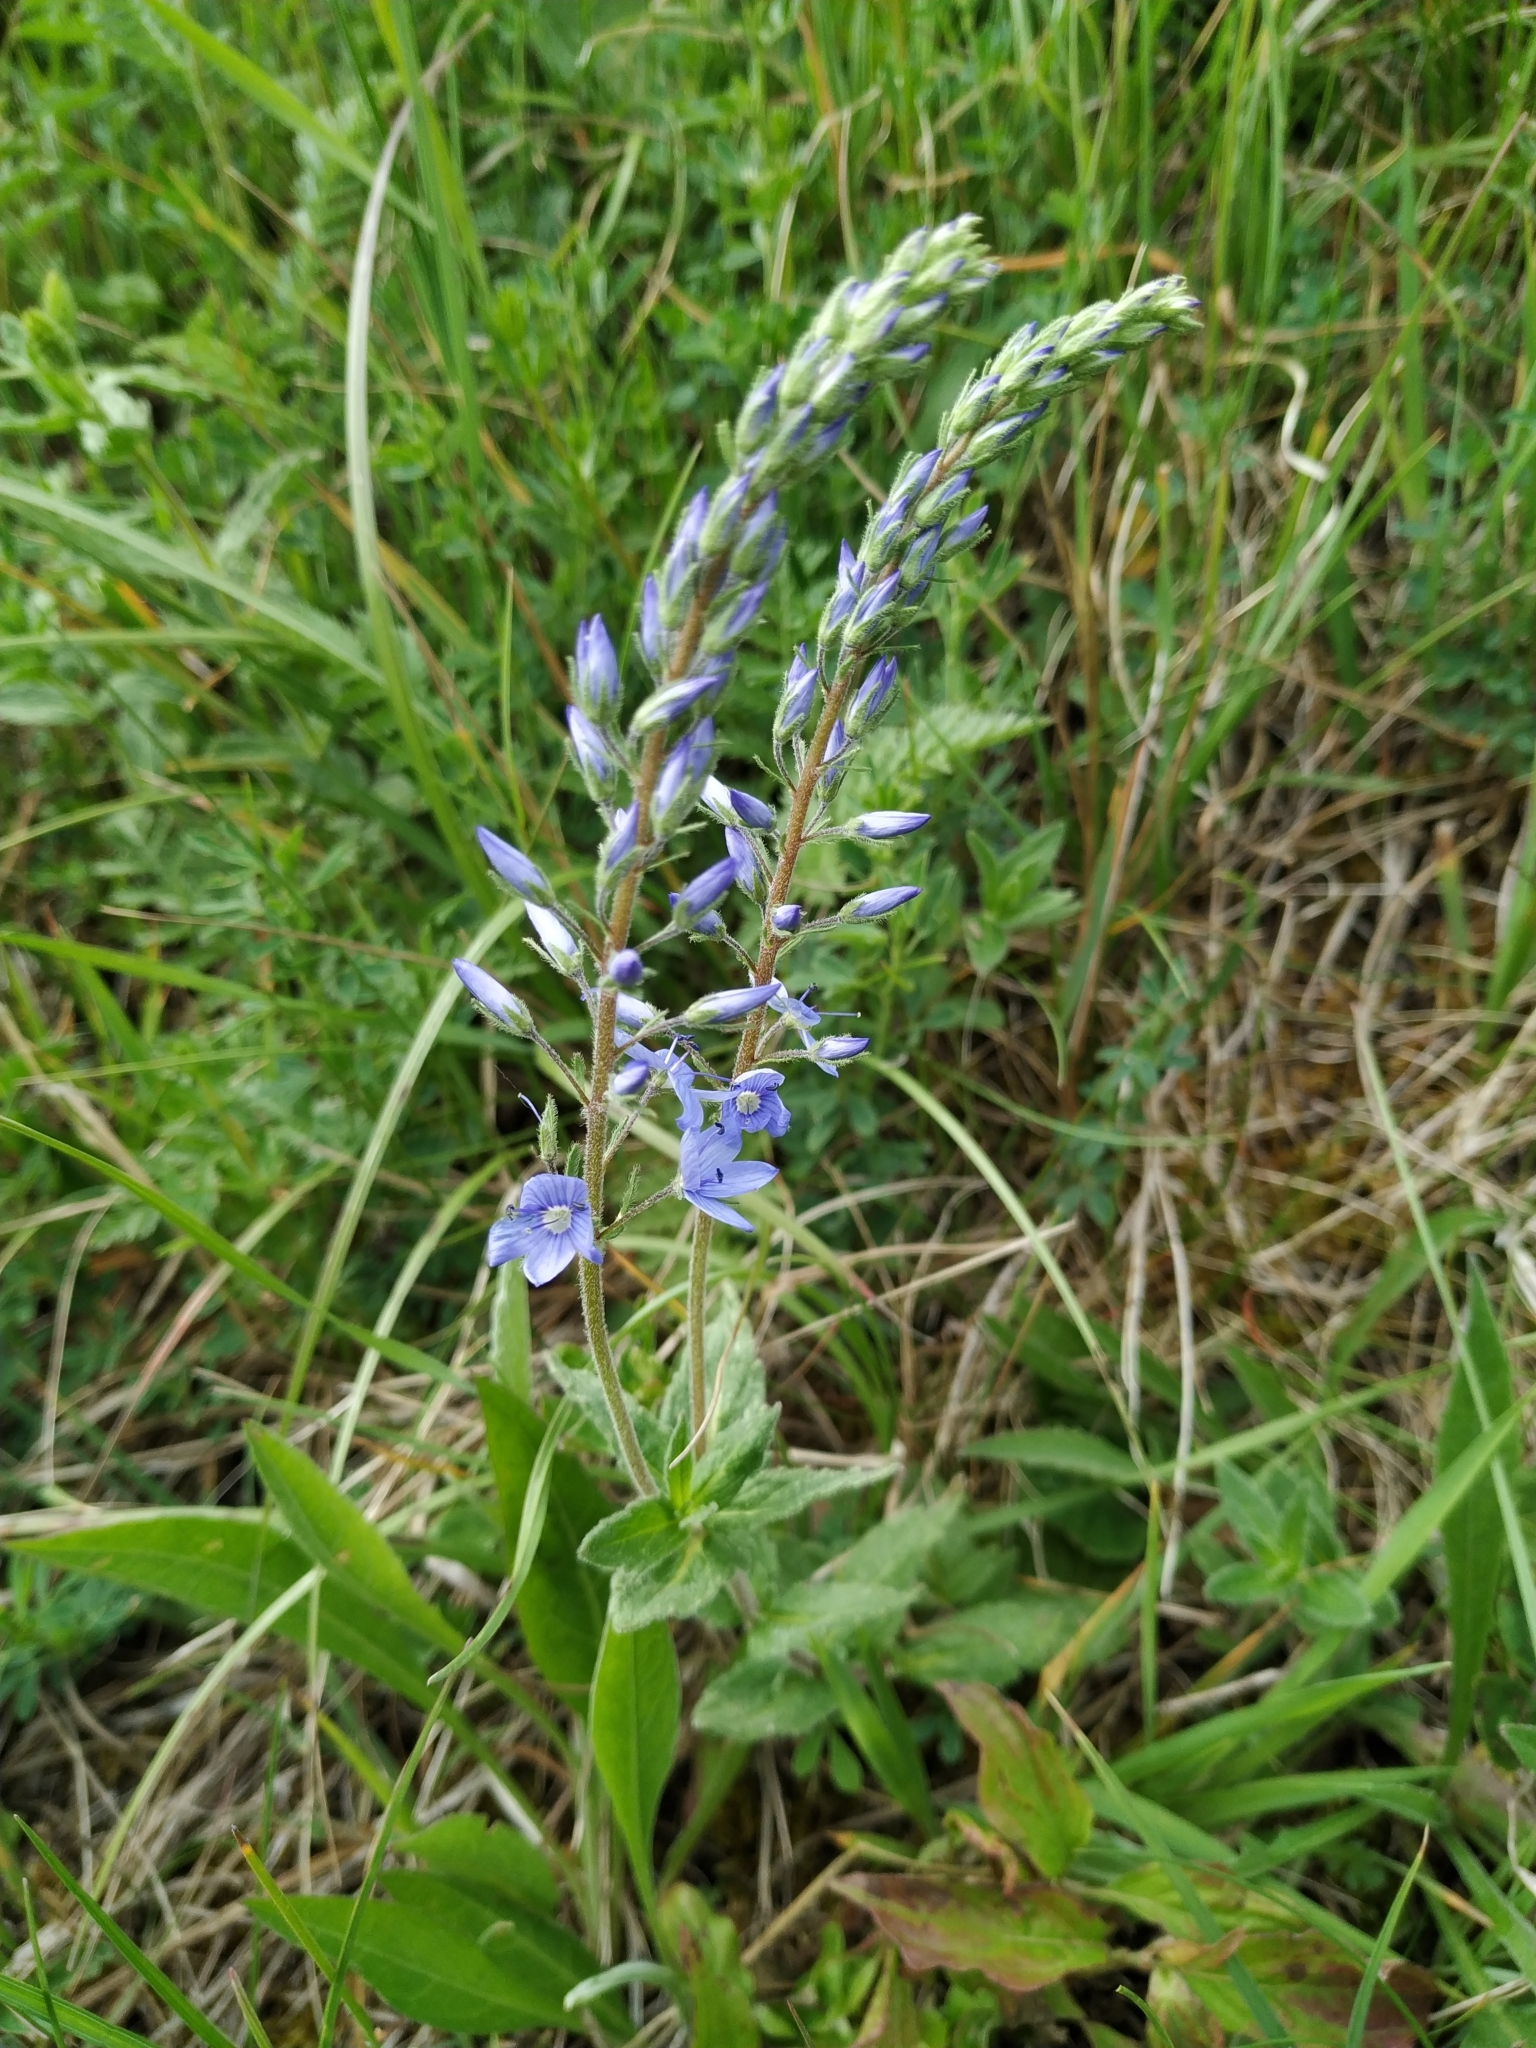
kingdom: Plantae
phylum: Tracheophyta
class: Magnoliopsida
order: Lamiales
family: Plantaginaceae
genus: Veronica
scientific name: Veronica teucrium
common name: Large speedwell
